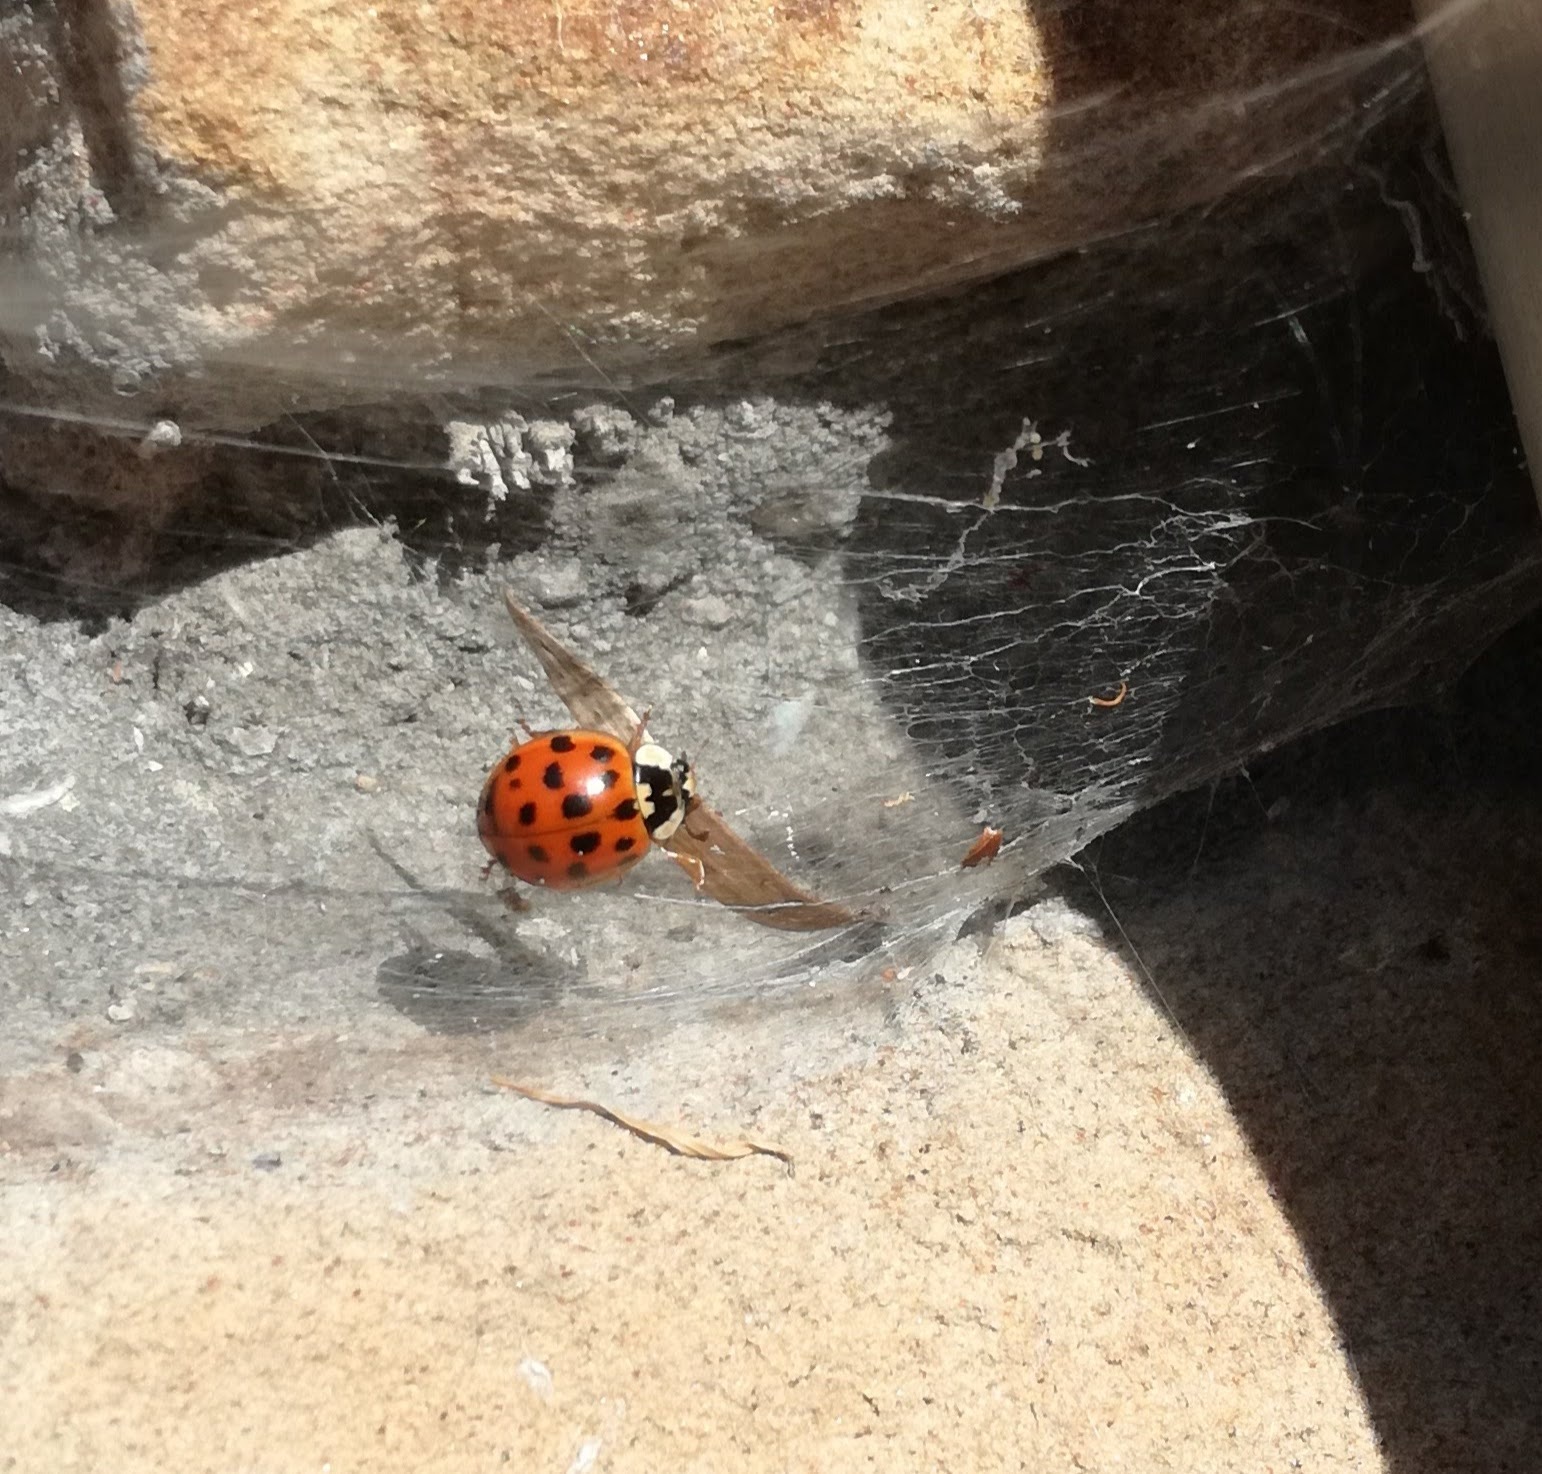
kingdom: Animalia
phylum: Arthropoda
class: Insecta
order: Coleoptera
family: Coccinellidae
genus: Harmonia
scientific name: Harmonia axyridis
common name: Harlequin ladybird
